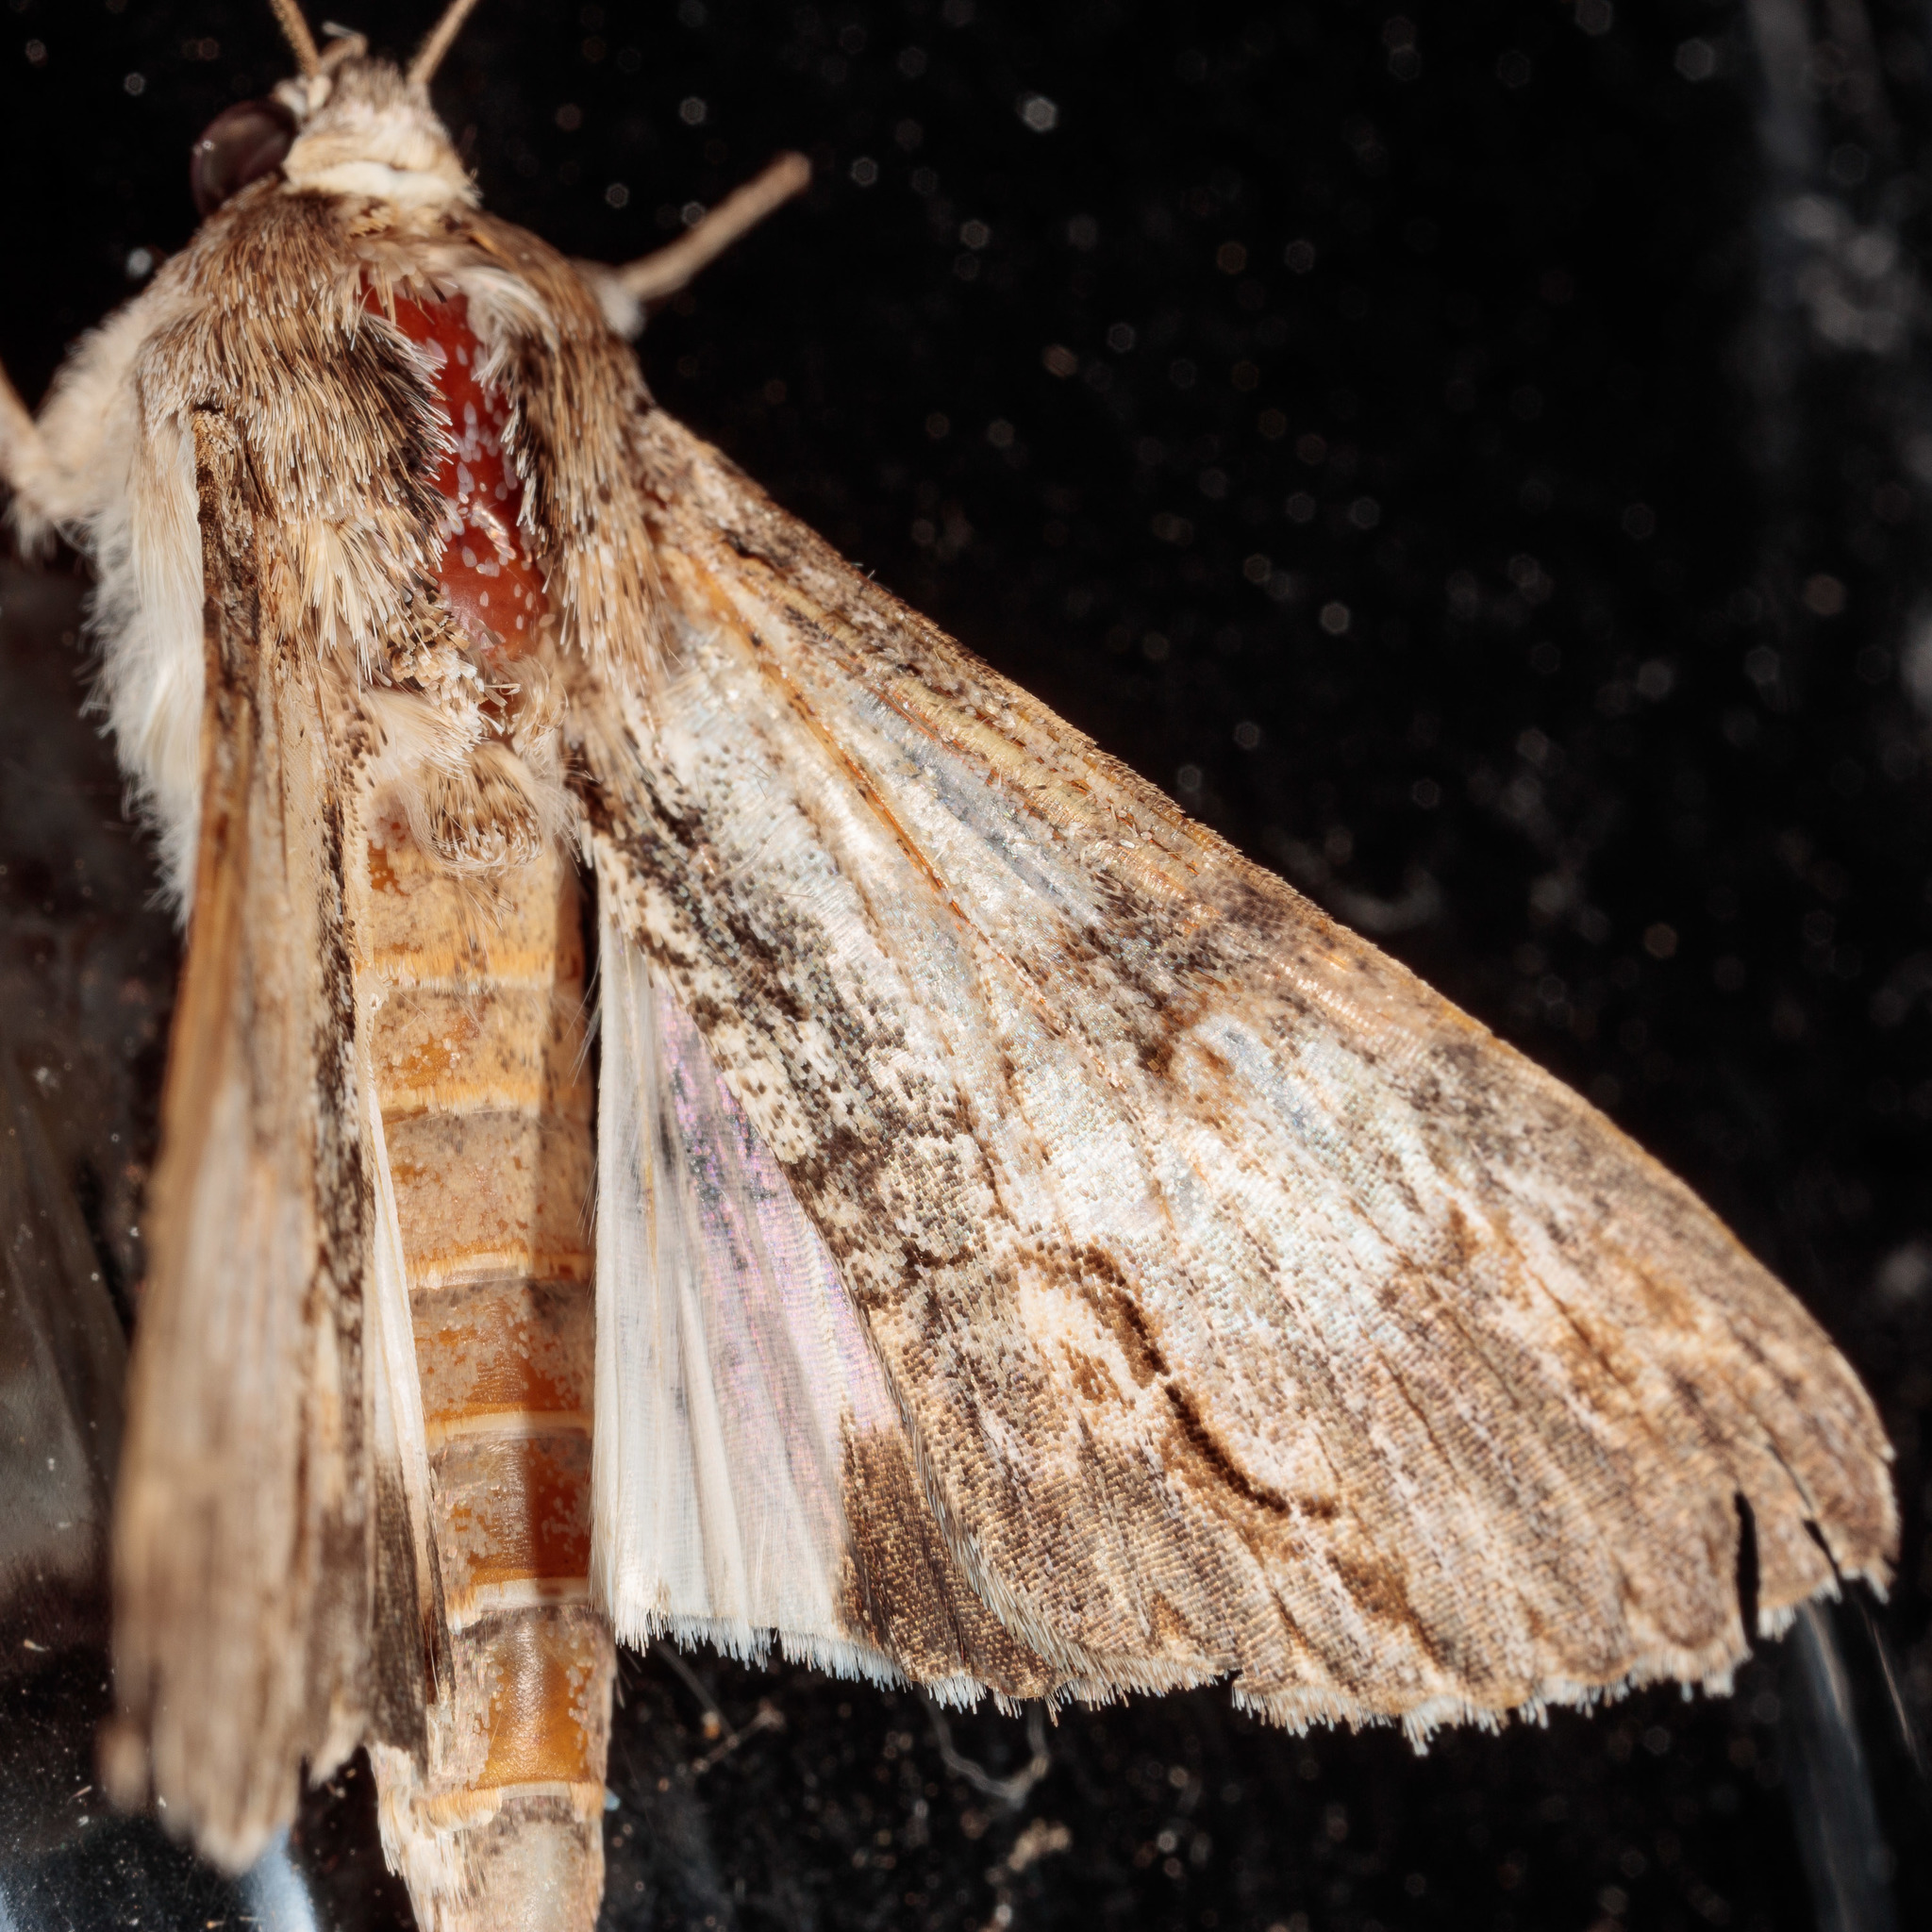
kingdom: Animalia
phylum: Arthropoda
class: Insecta
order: Lepidoptera
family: Erebidae
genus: Melipotis
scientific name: Melipotis acontioides
